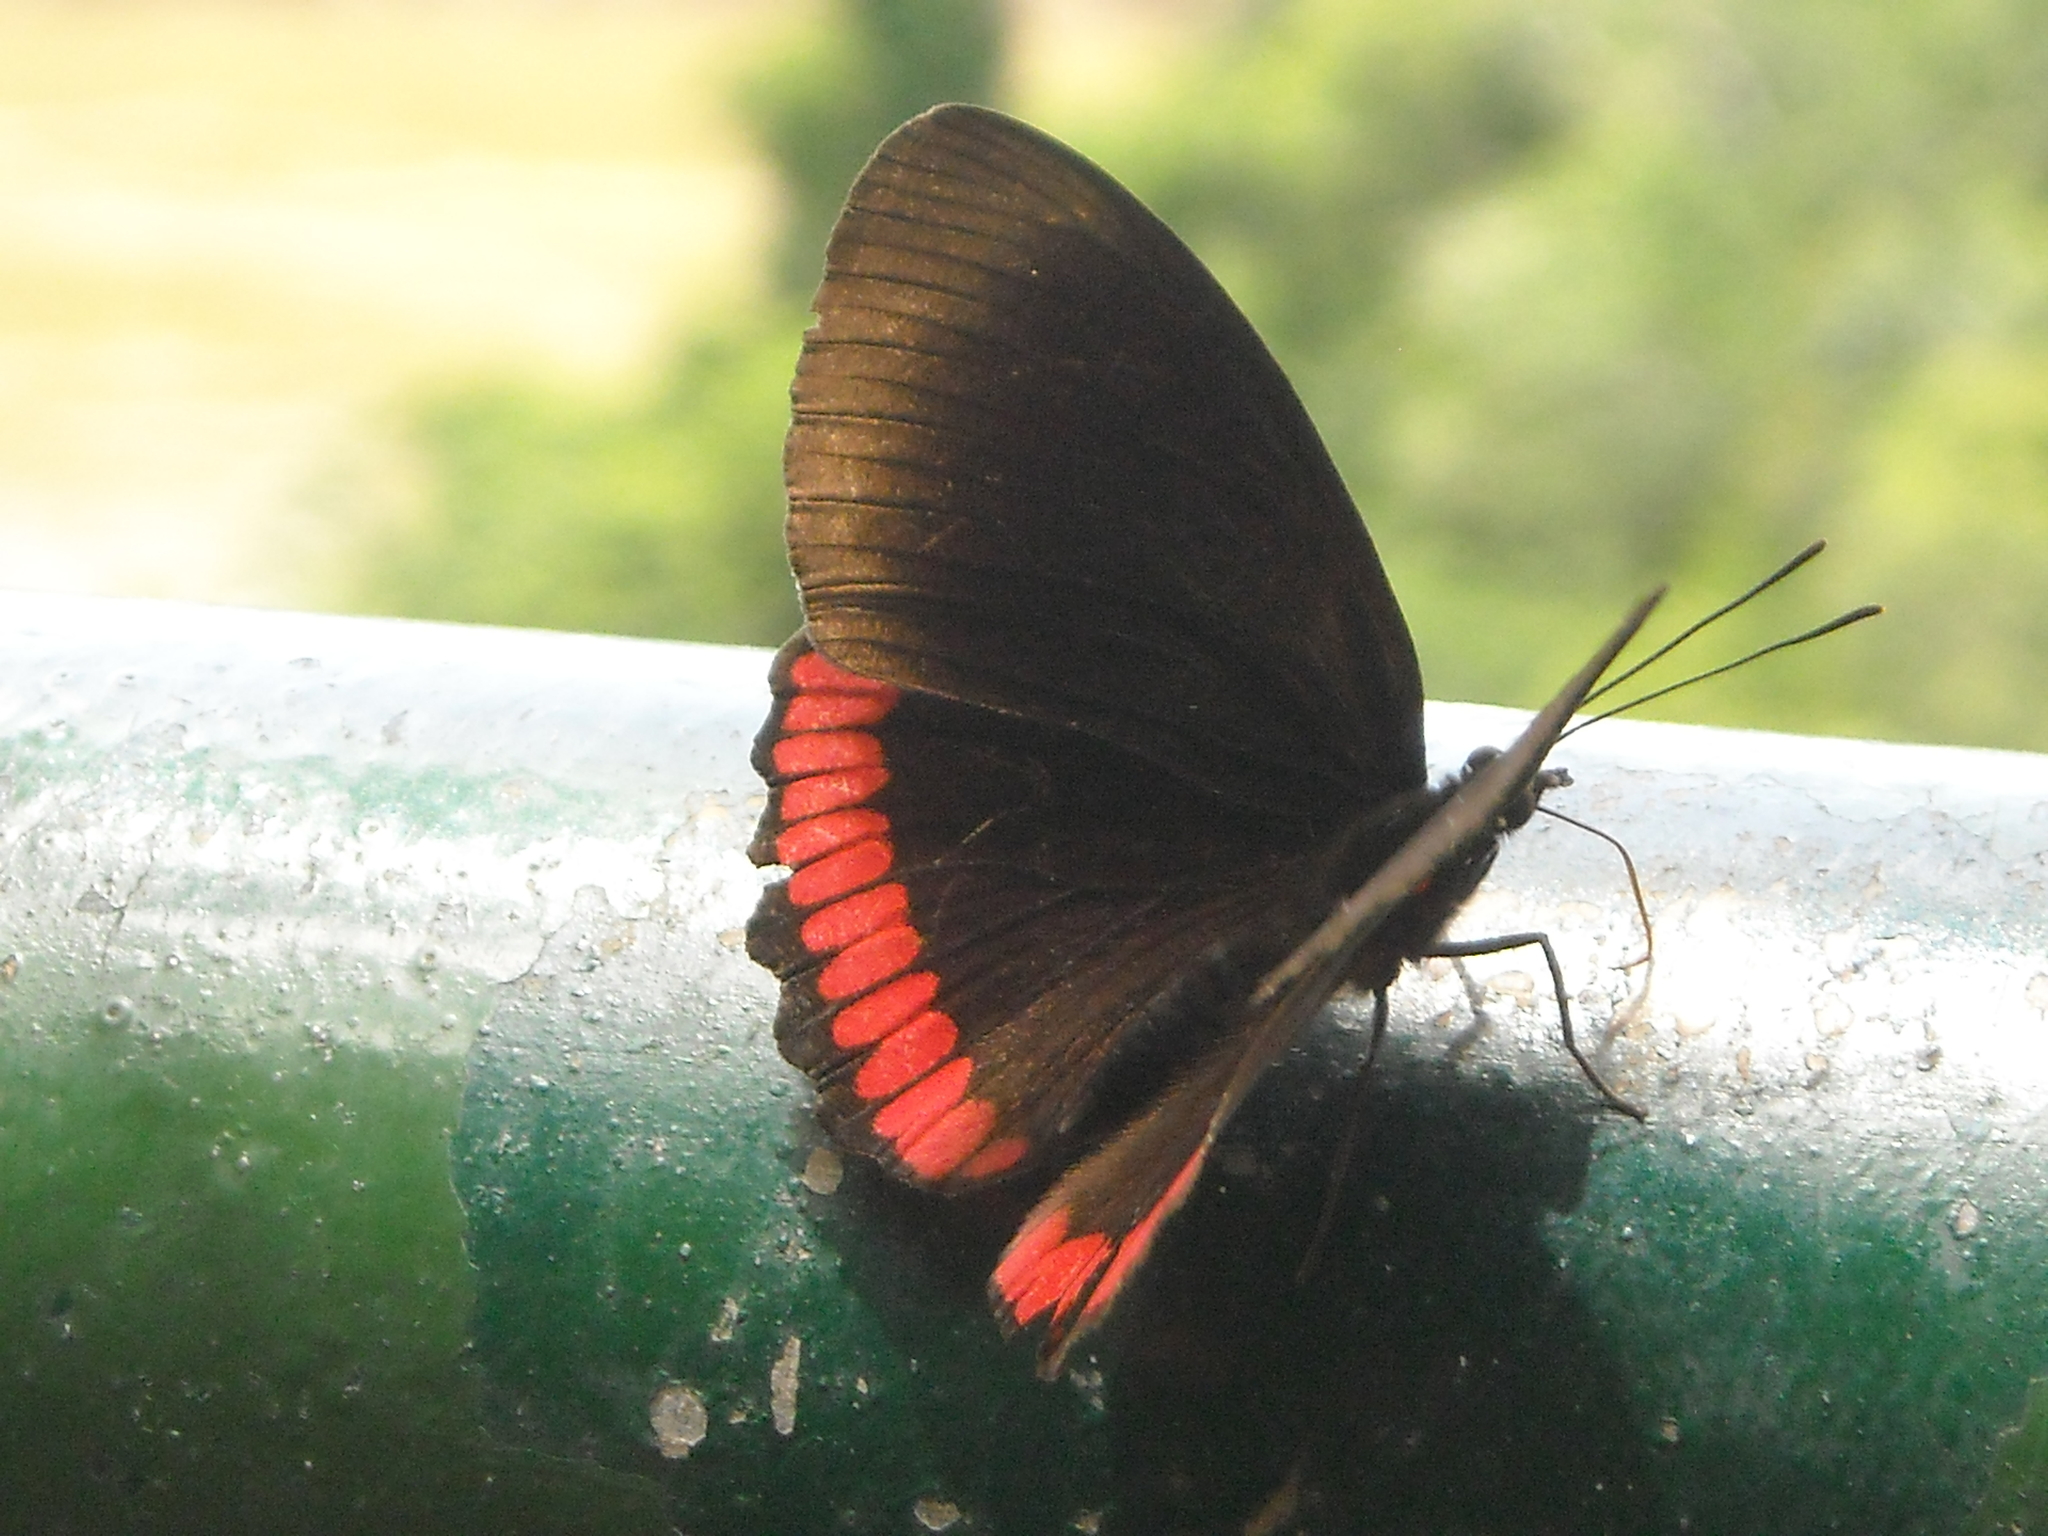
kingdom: Animalia
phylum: Arthropoda
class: Insecta
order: Lepidoptera
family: Sesiidae
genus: Sesia
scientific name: Sesia Biblis hyperia
